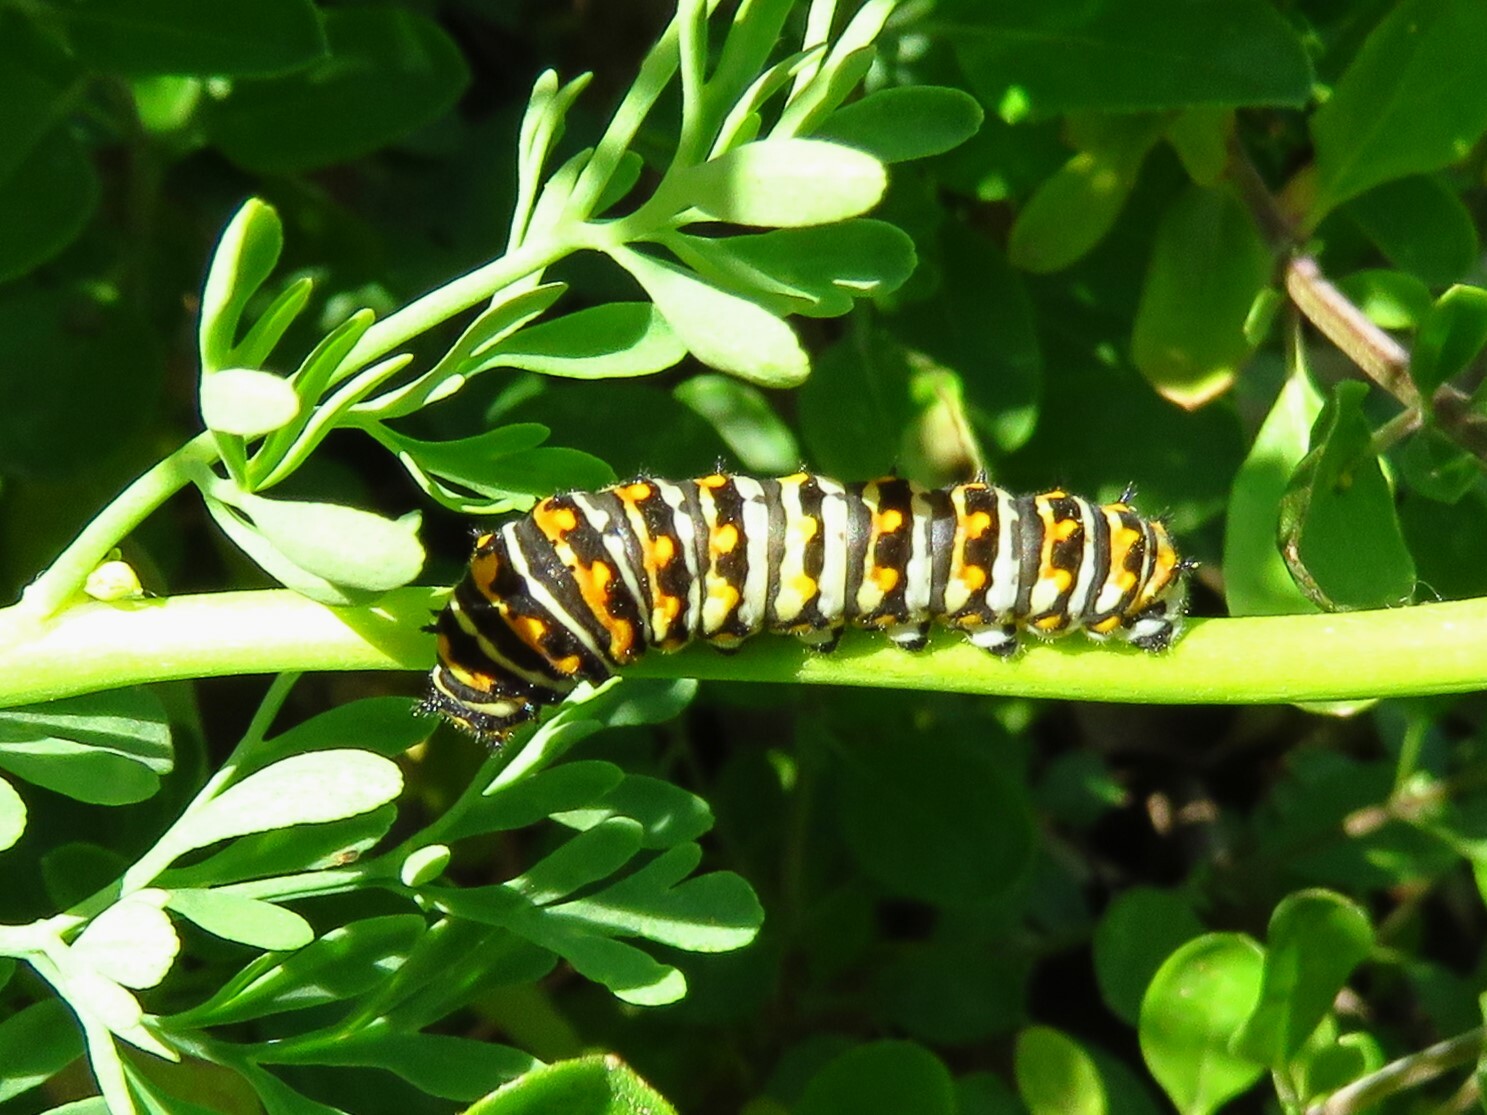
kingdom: Animalia
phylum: Arthropoda
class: Insecta
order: Lepidoptera
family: Papilionidae
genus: Papilio
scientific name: Papilio polyxenes
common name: Black swallowtail
